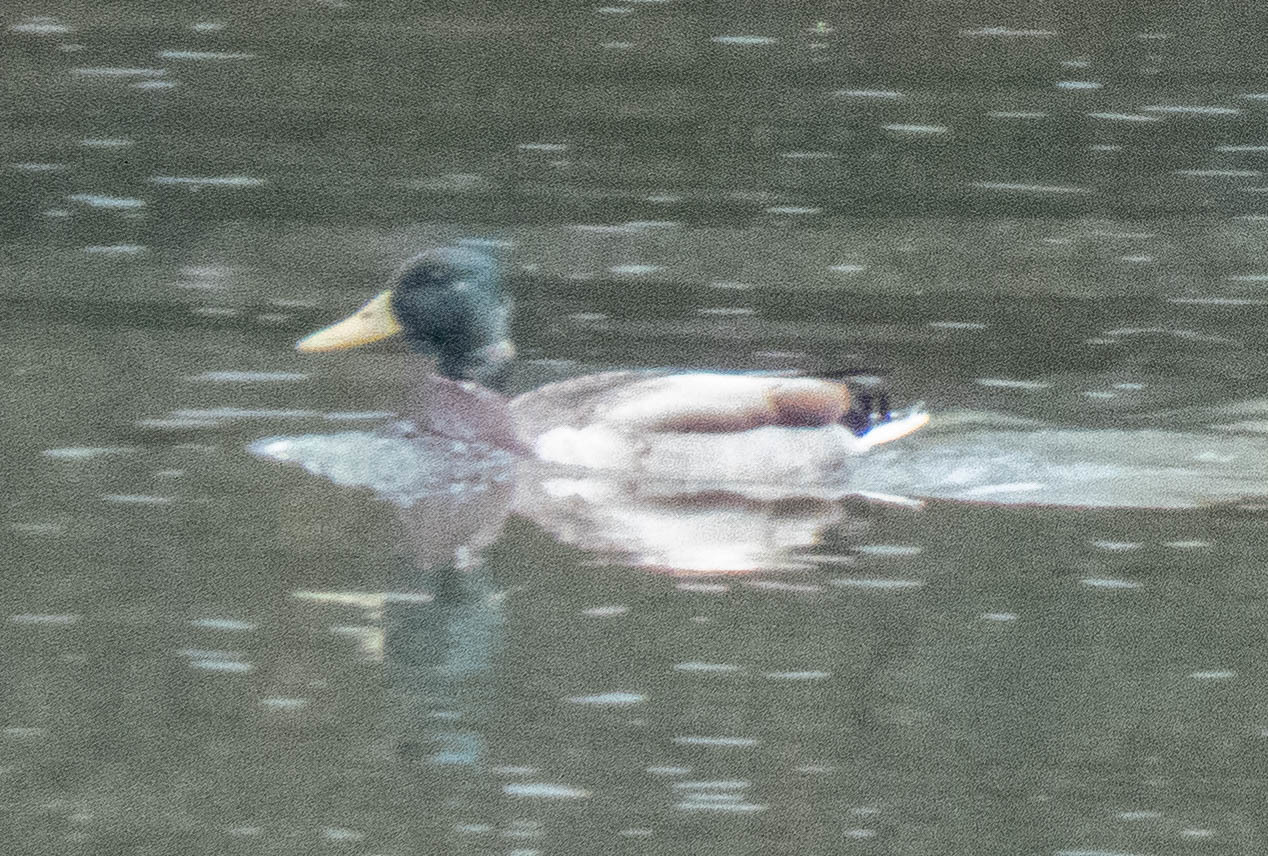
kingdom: Animalia
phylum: Chordata
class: Aves
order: Anseriformes
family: Anatidae
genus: Anas
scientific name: Anas platyrhynchos
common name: Mallard
